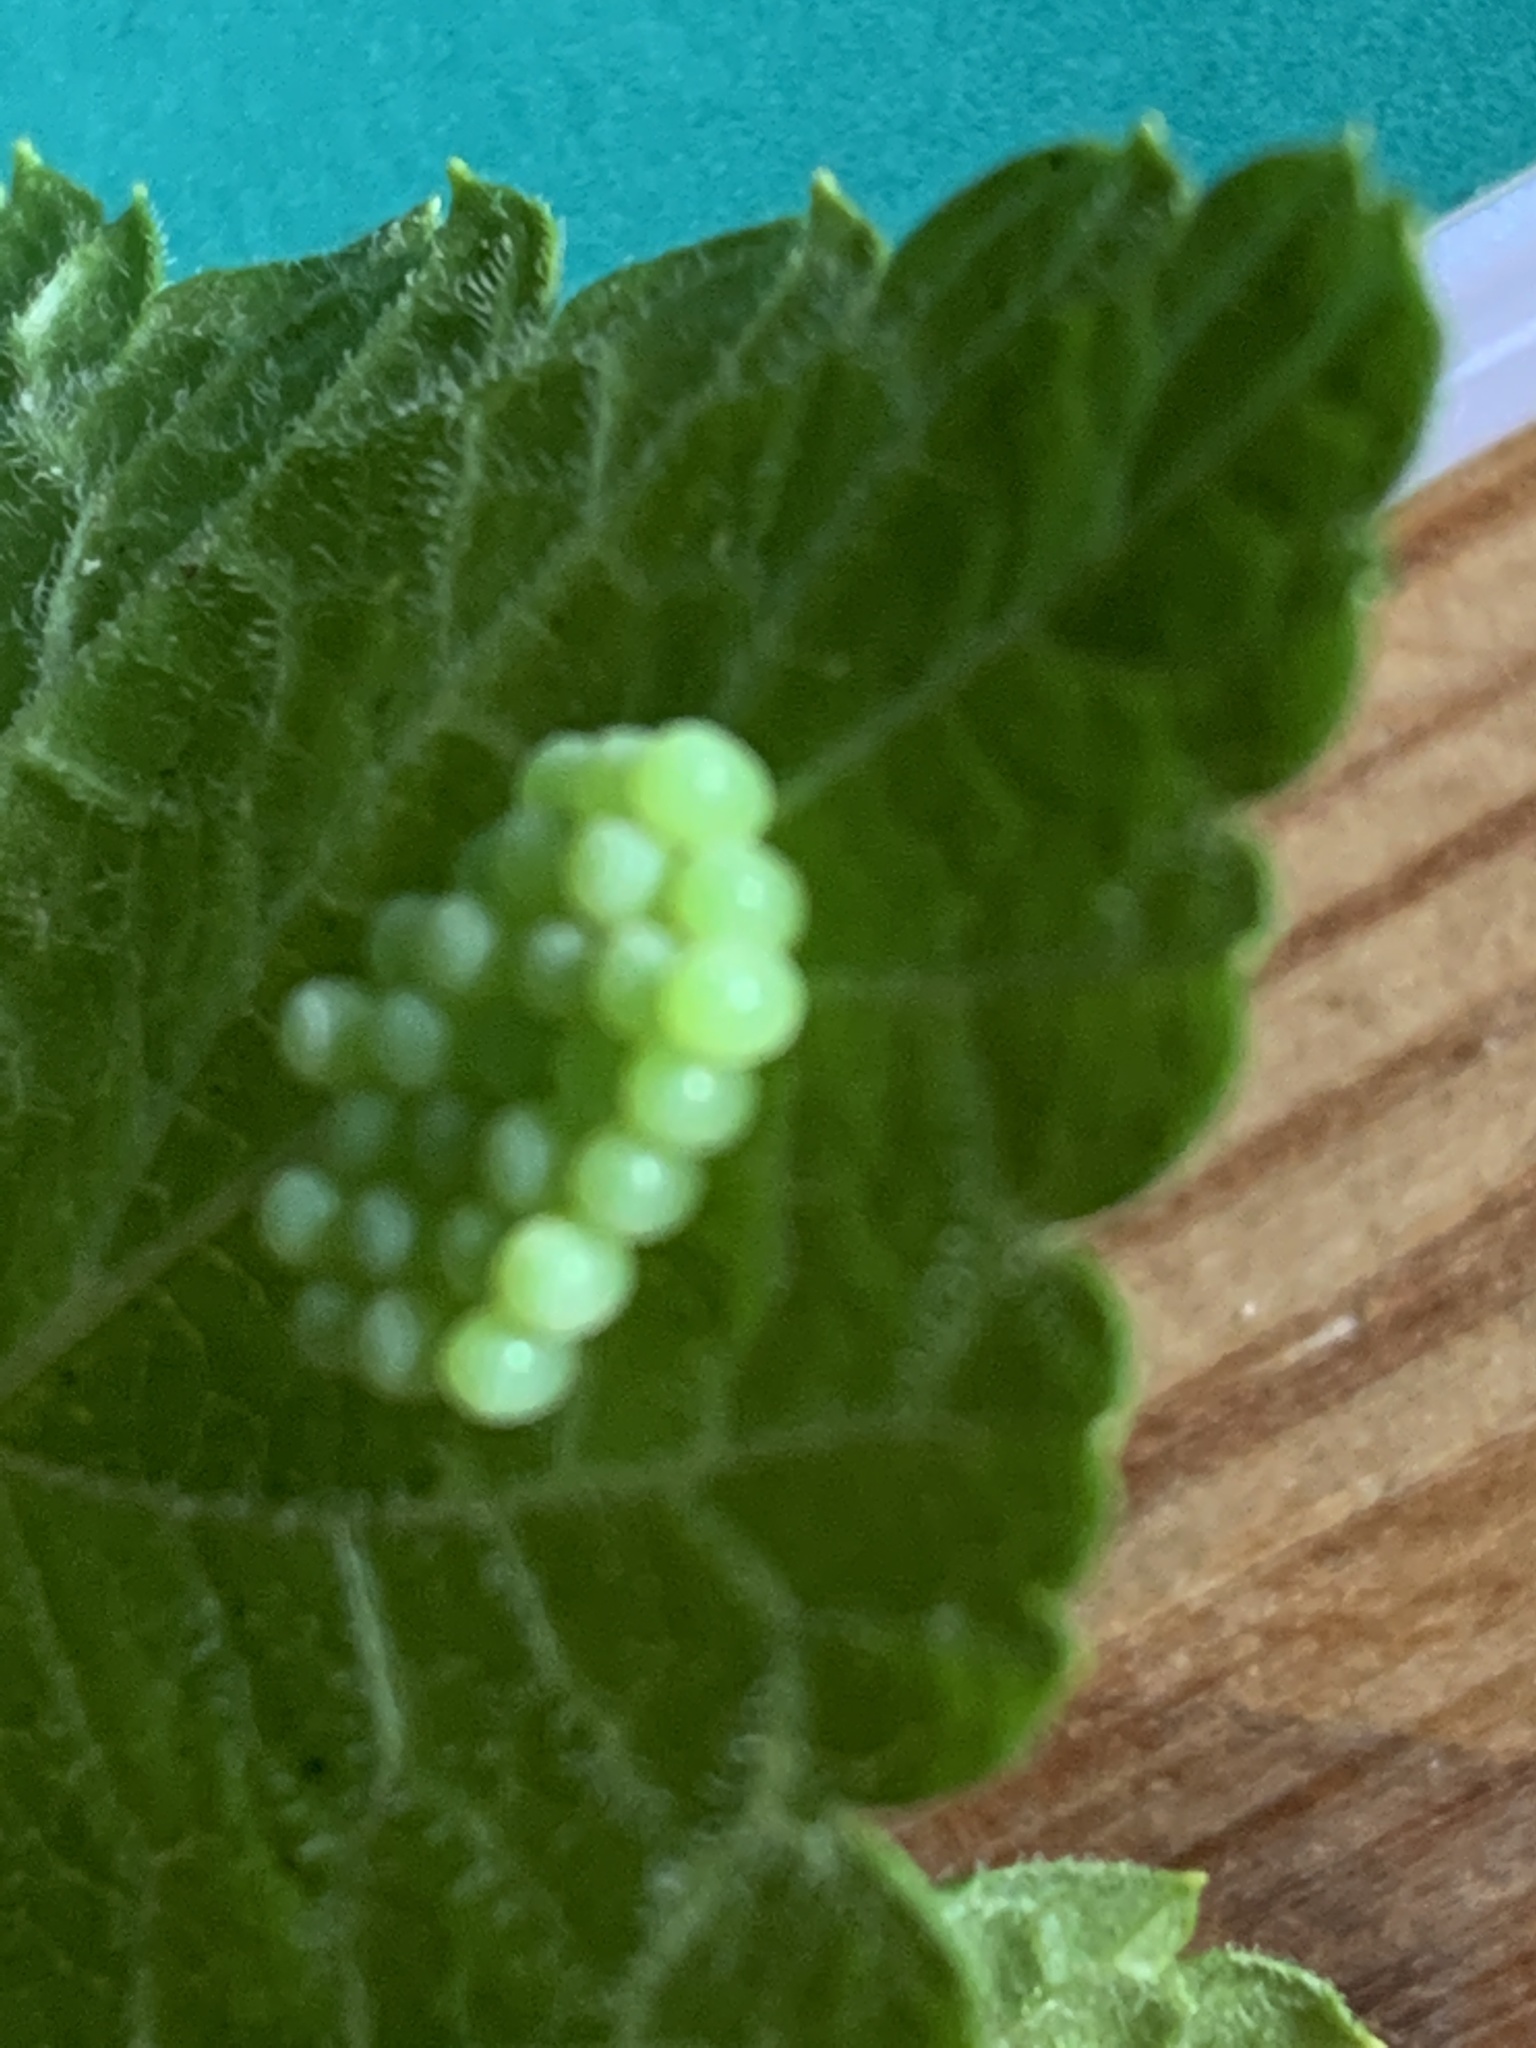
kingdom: Animalia
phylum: Arthropoda
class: Insecta
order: Hemiptera
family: Pentatomidae
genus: Palomena
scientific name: Palomena prasina
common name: Green shieldbug
